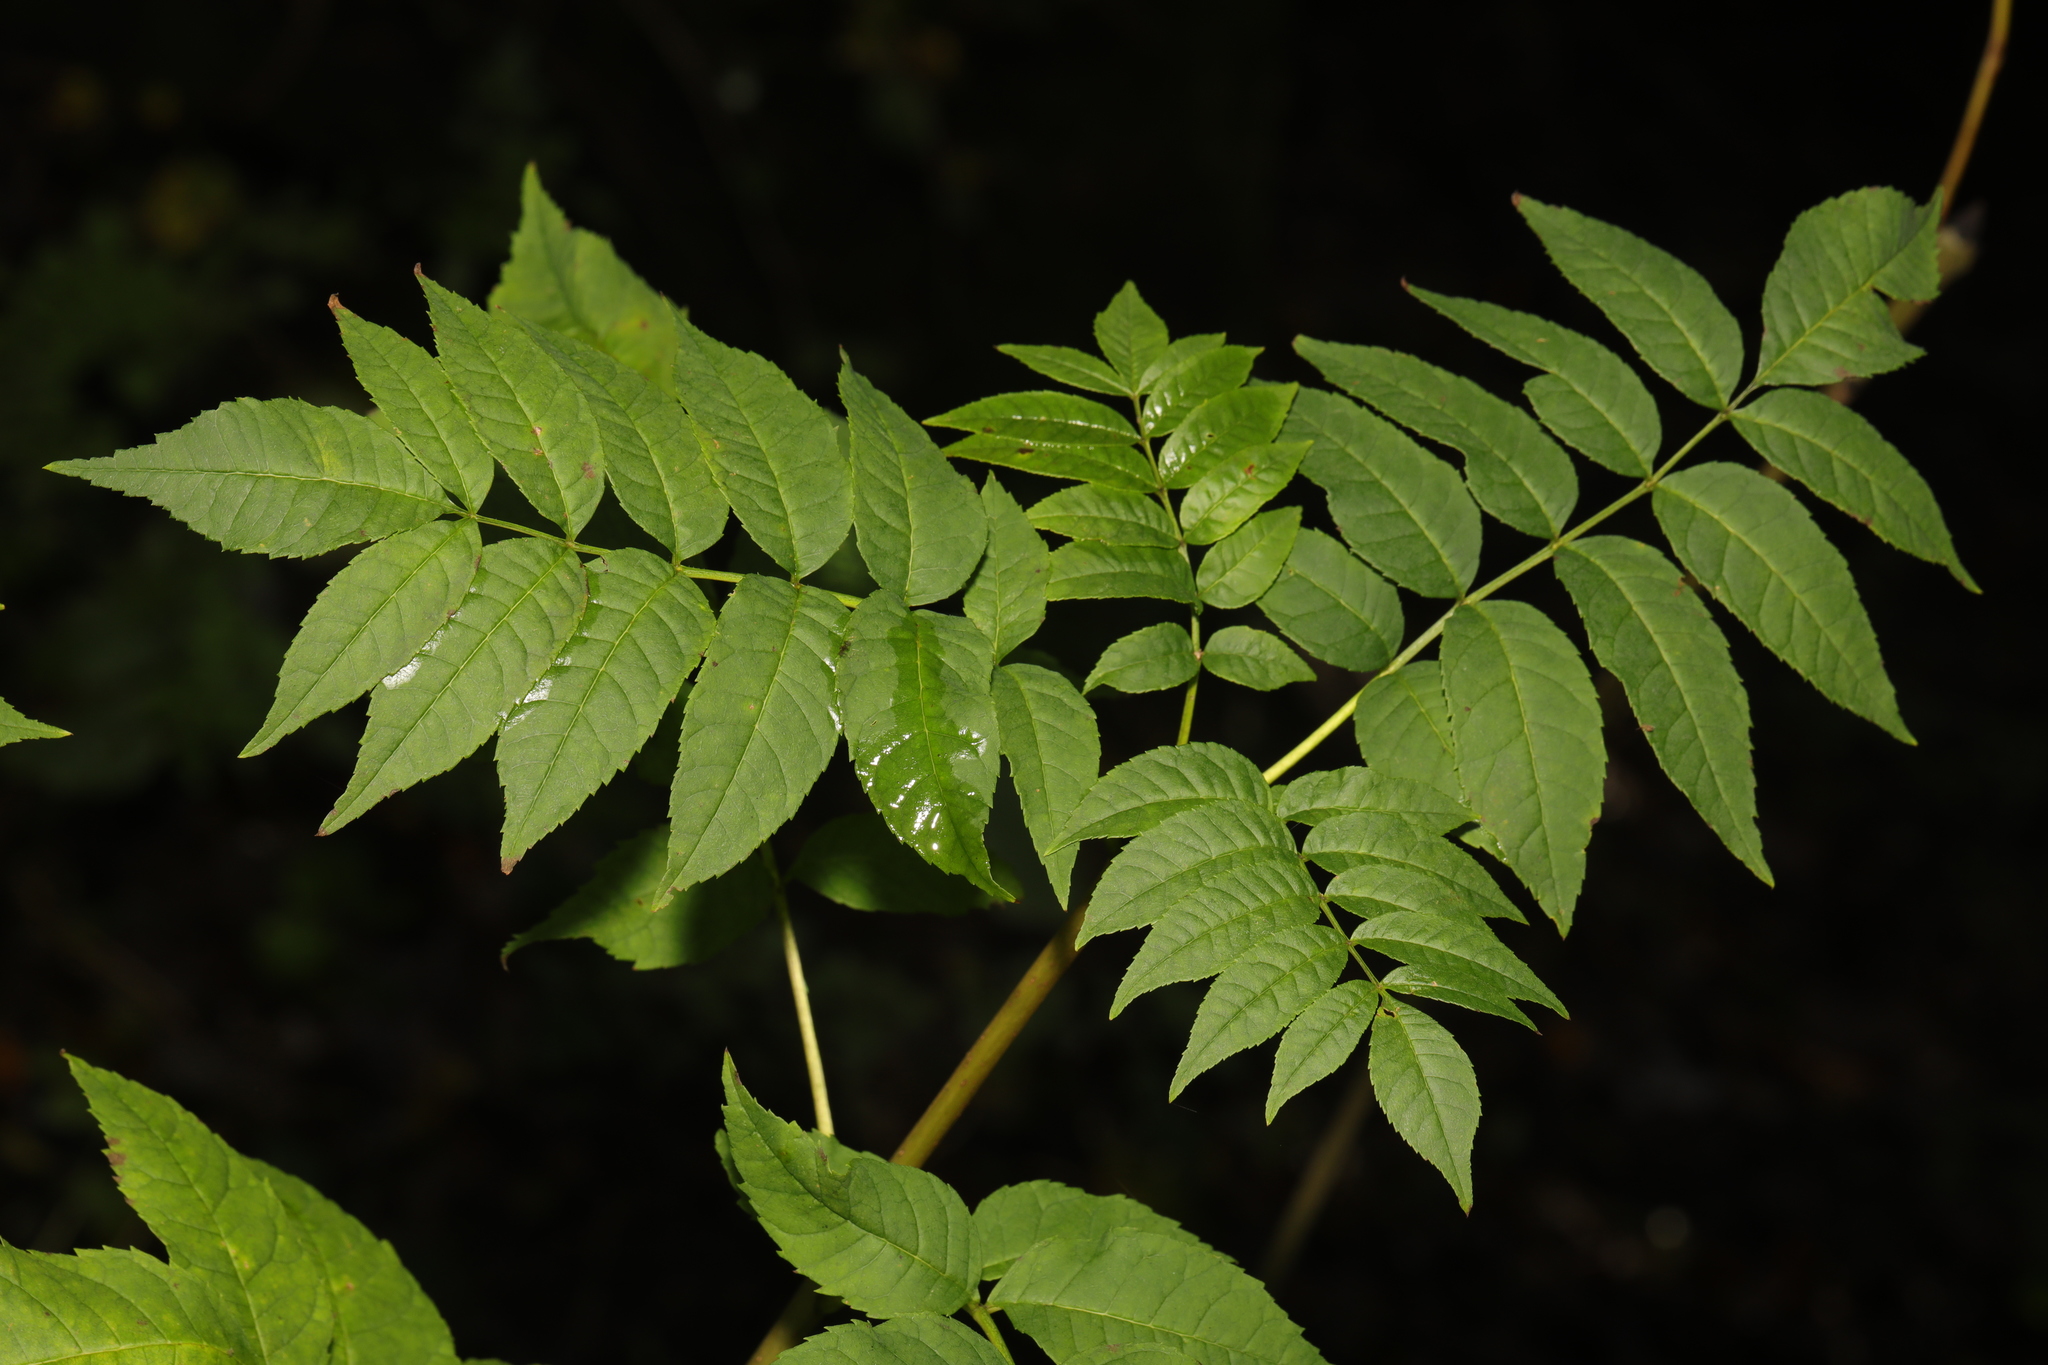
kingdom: Plantae
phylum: Tracheophyta
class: Magnoliopsida
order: Lamiales
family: Oleaceae
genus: Fraxinus
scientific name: Fraxinus excelsior
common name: European ash
